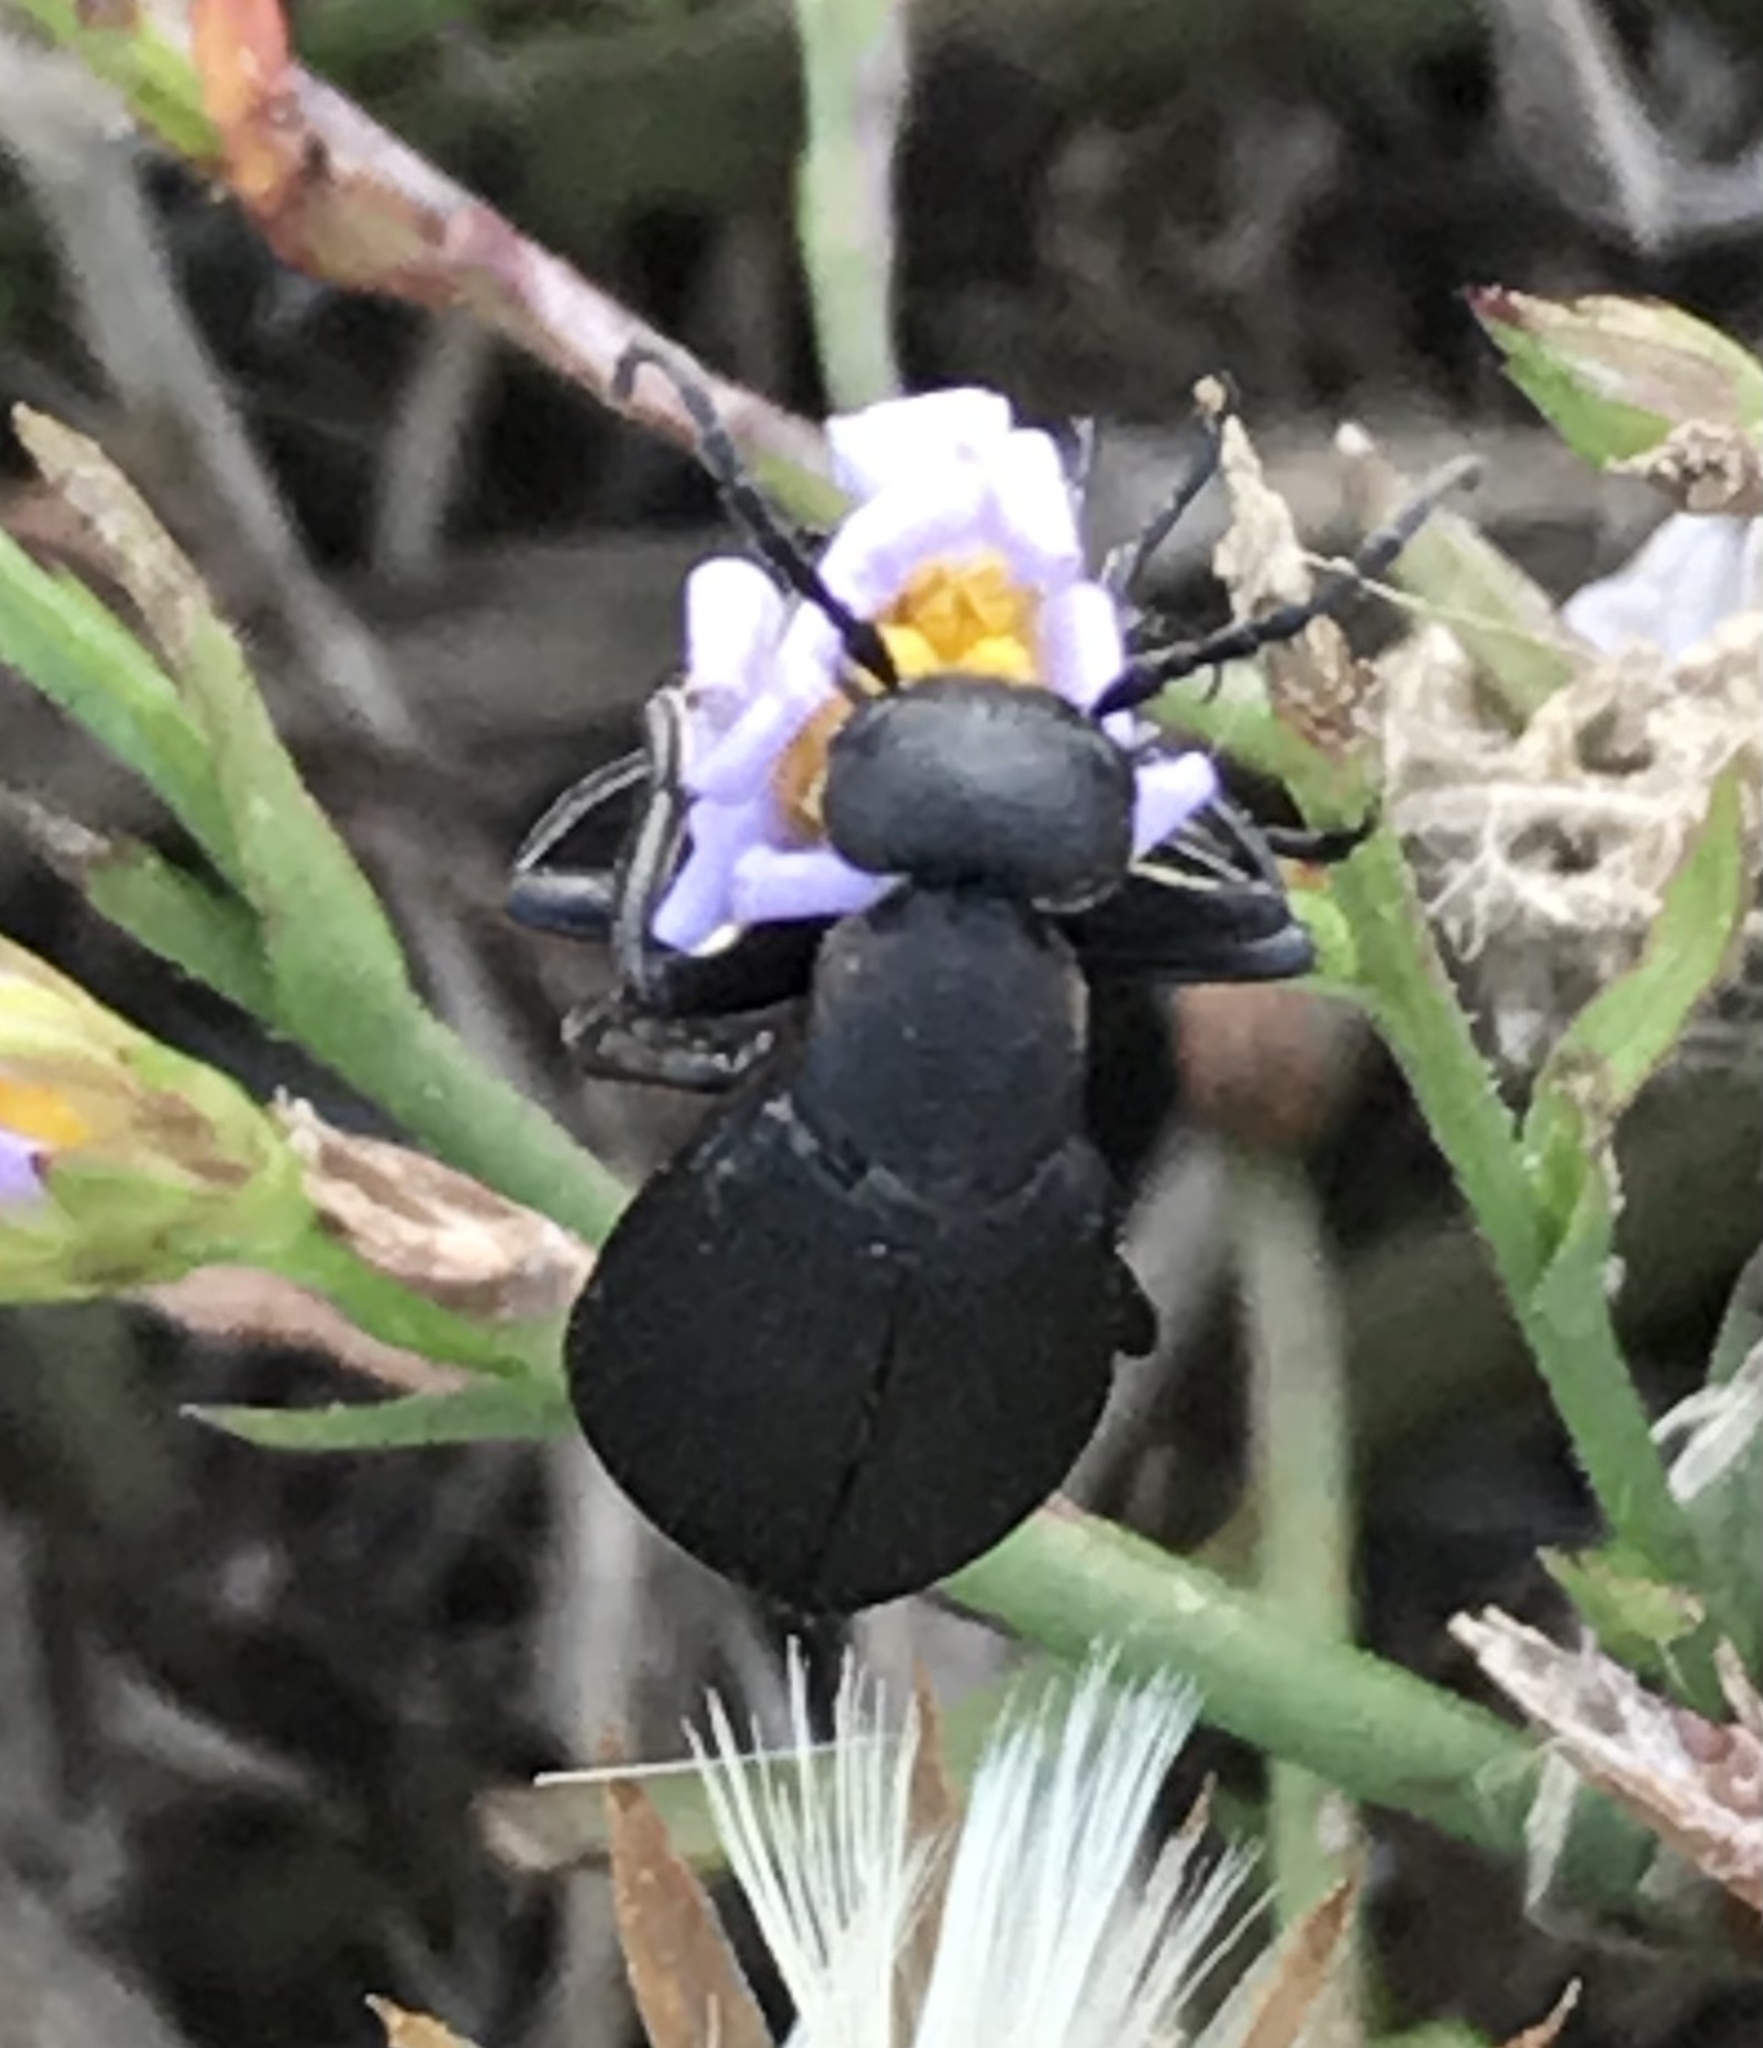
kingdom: Animalia
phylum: Arthropoda
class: Insecta
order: Coleoptera
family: Meloidae
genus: Epicauta
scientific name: Epicauta pensylvanica
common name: Black blister beetle
